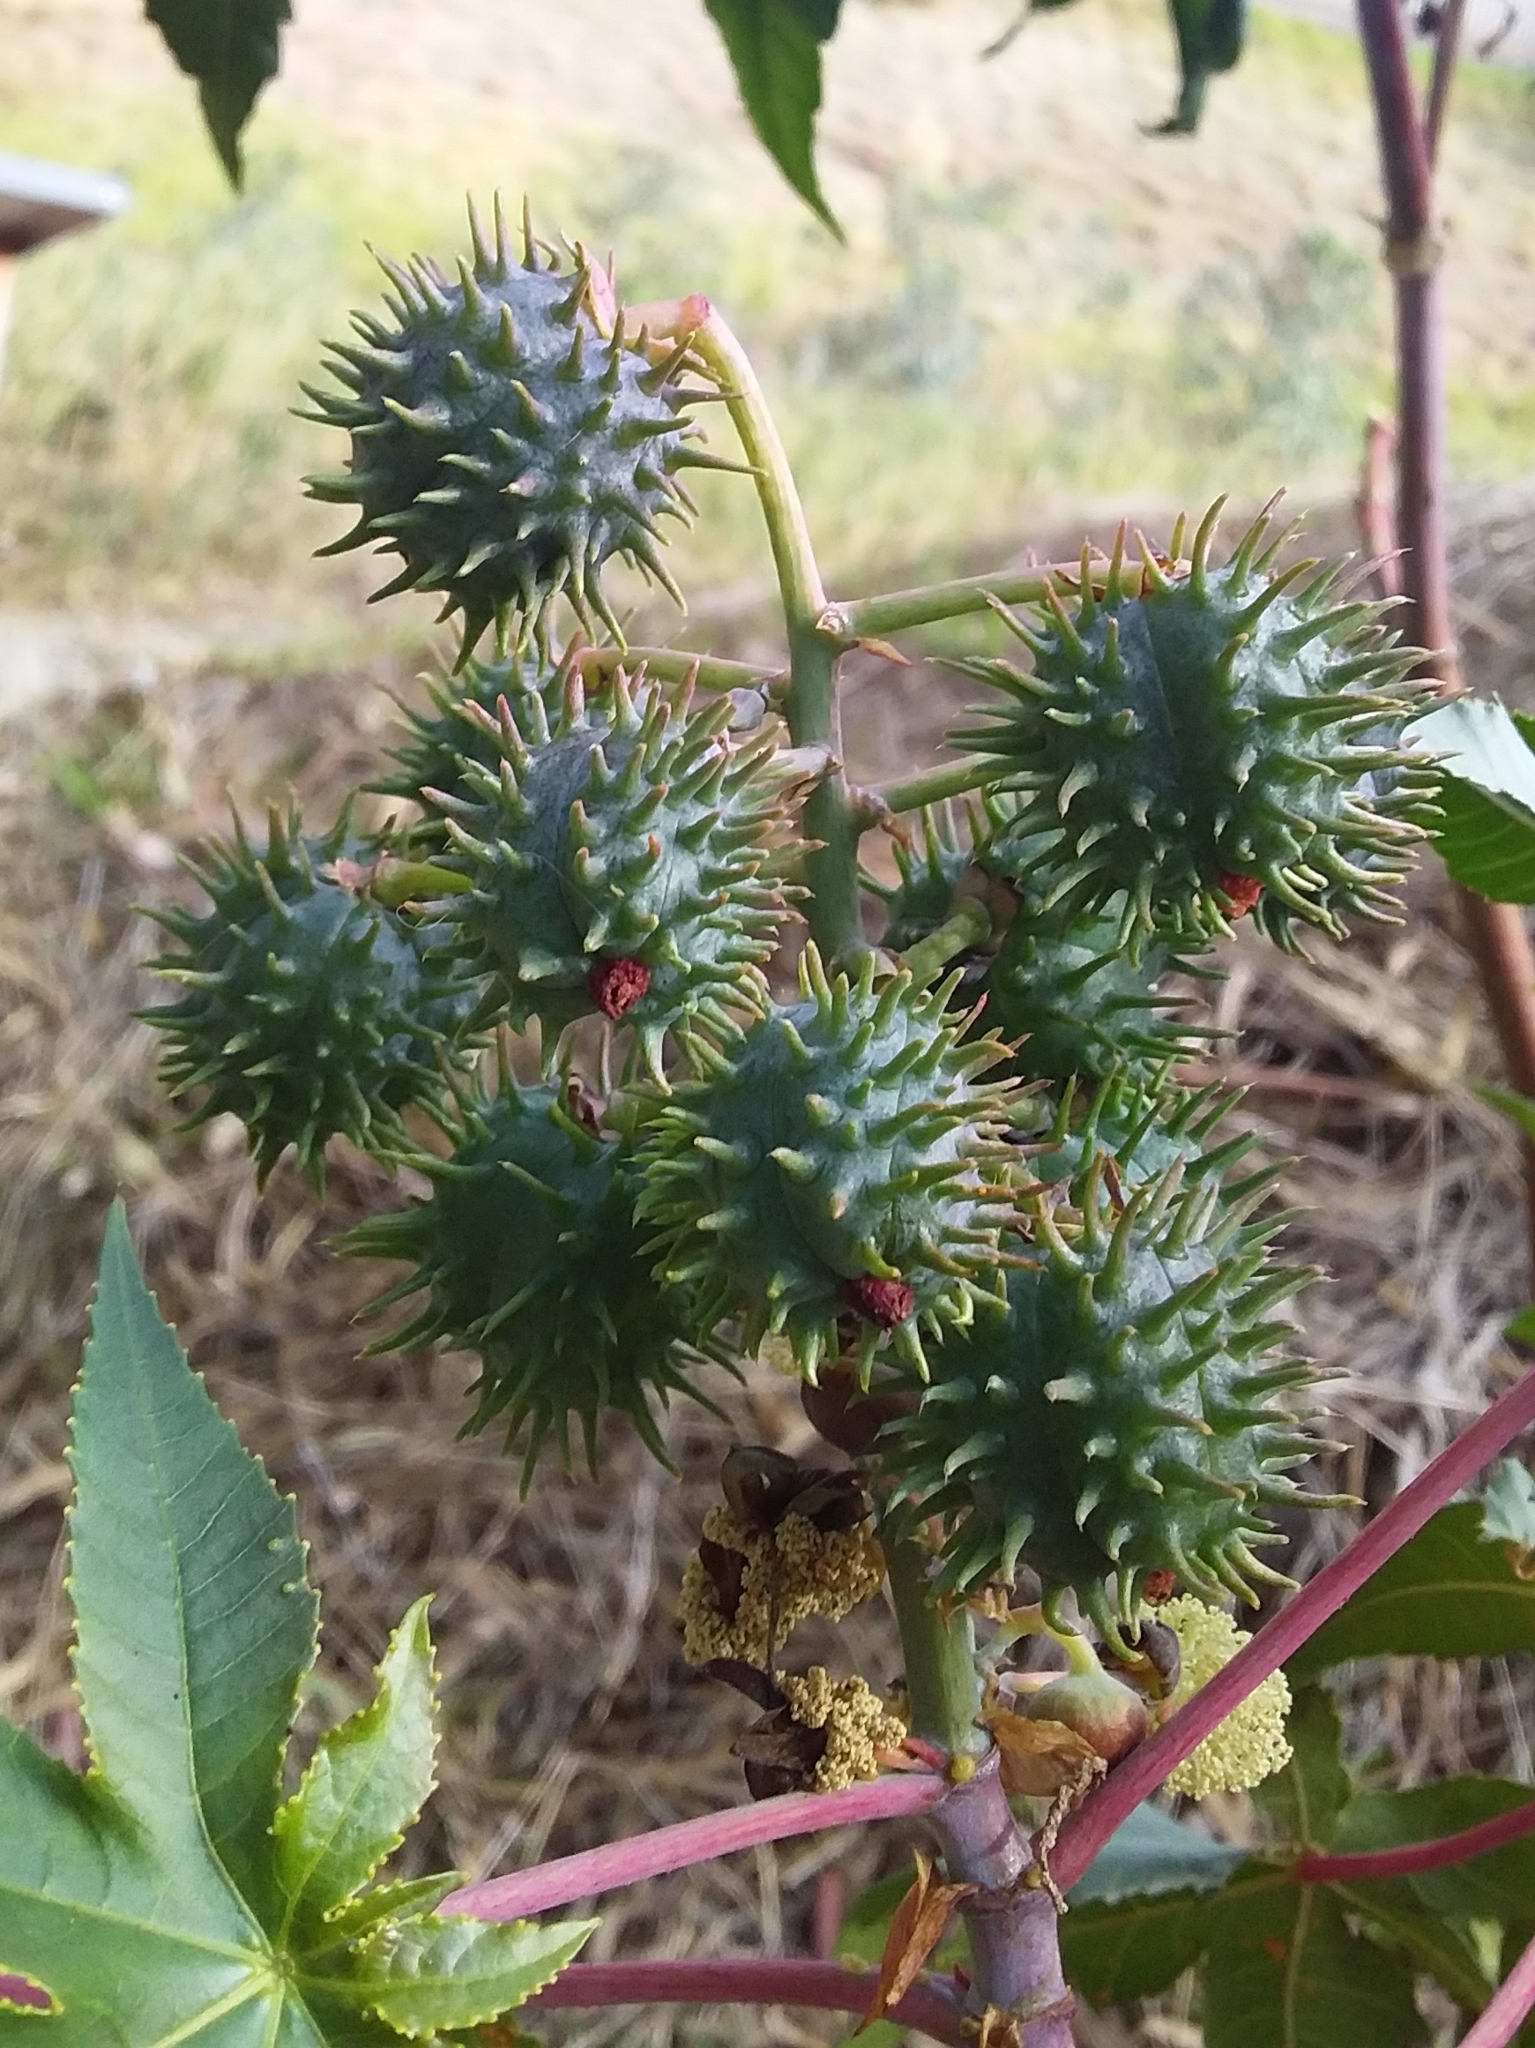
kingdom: Plantae
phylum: Tracheophyta
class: Magnoliopsida
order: Malpighiales
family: Euphorbiaceae
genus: Ricinus
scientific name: Ricinus communis
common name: Castor-oil-plant
